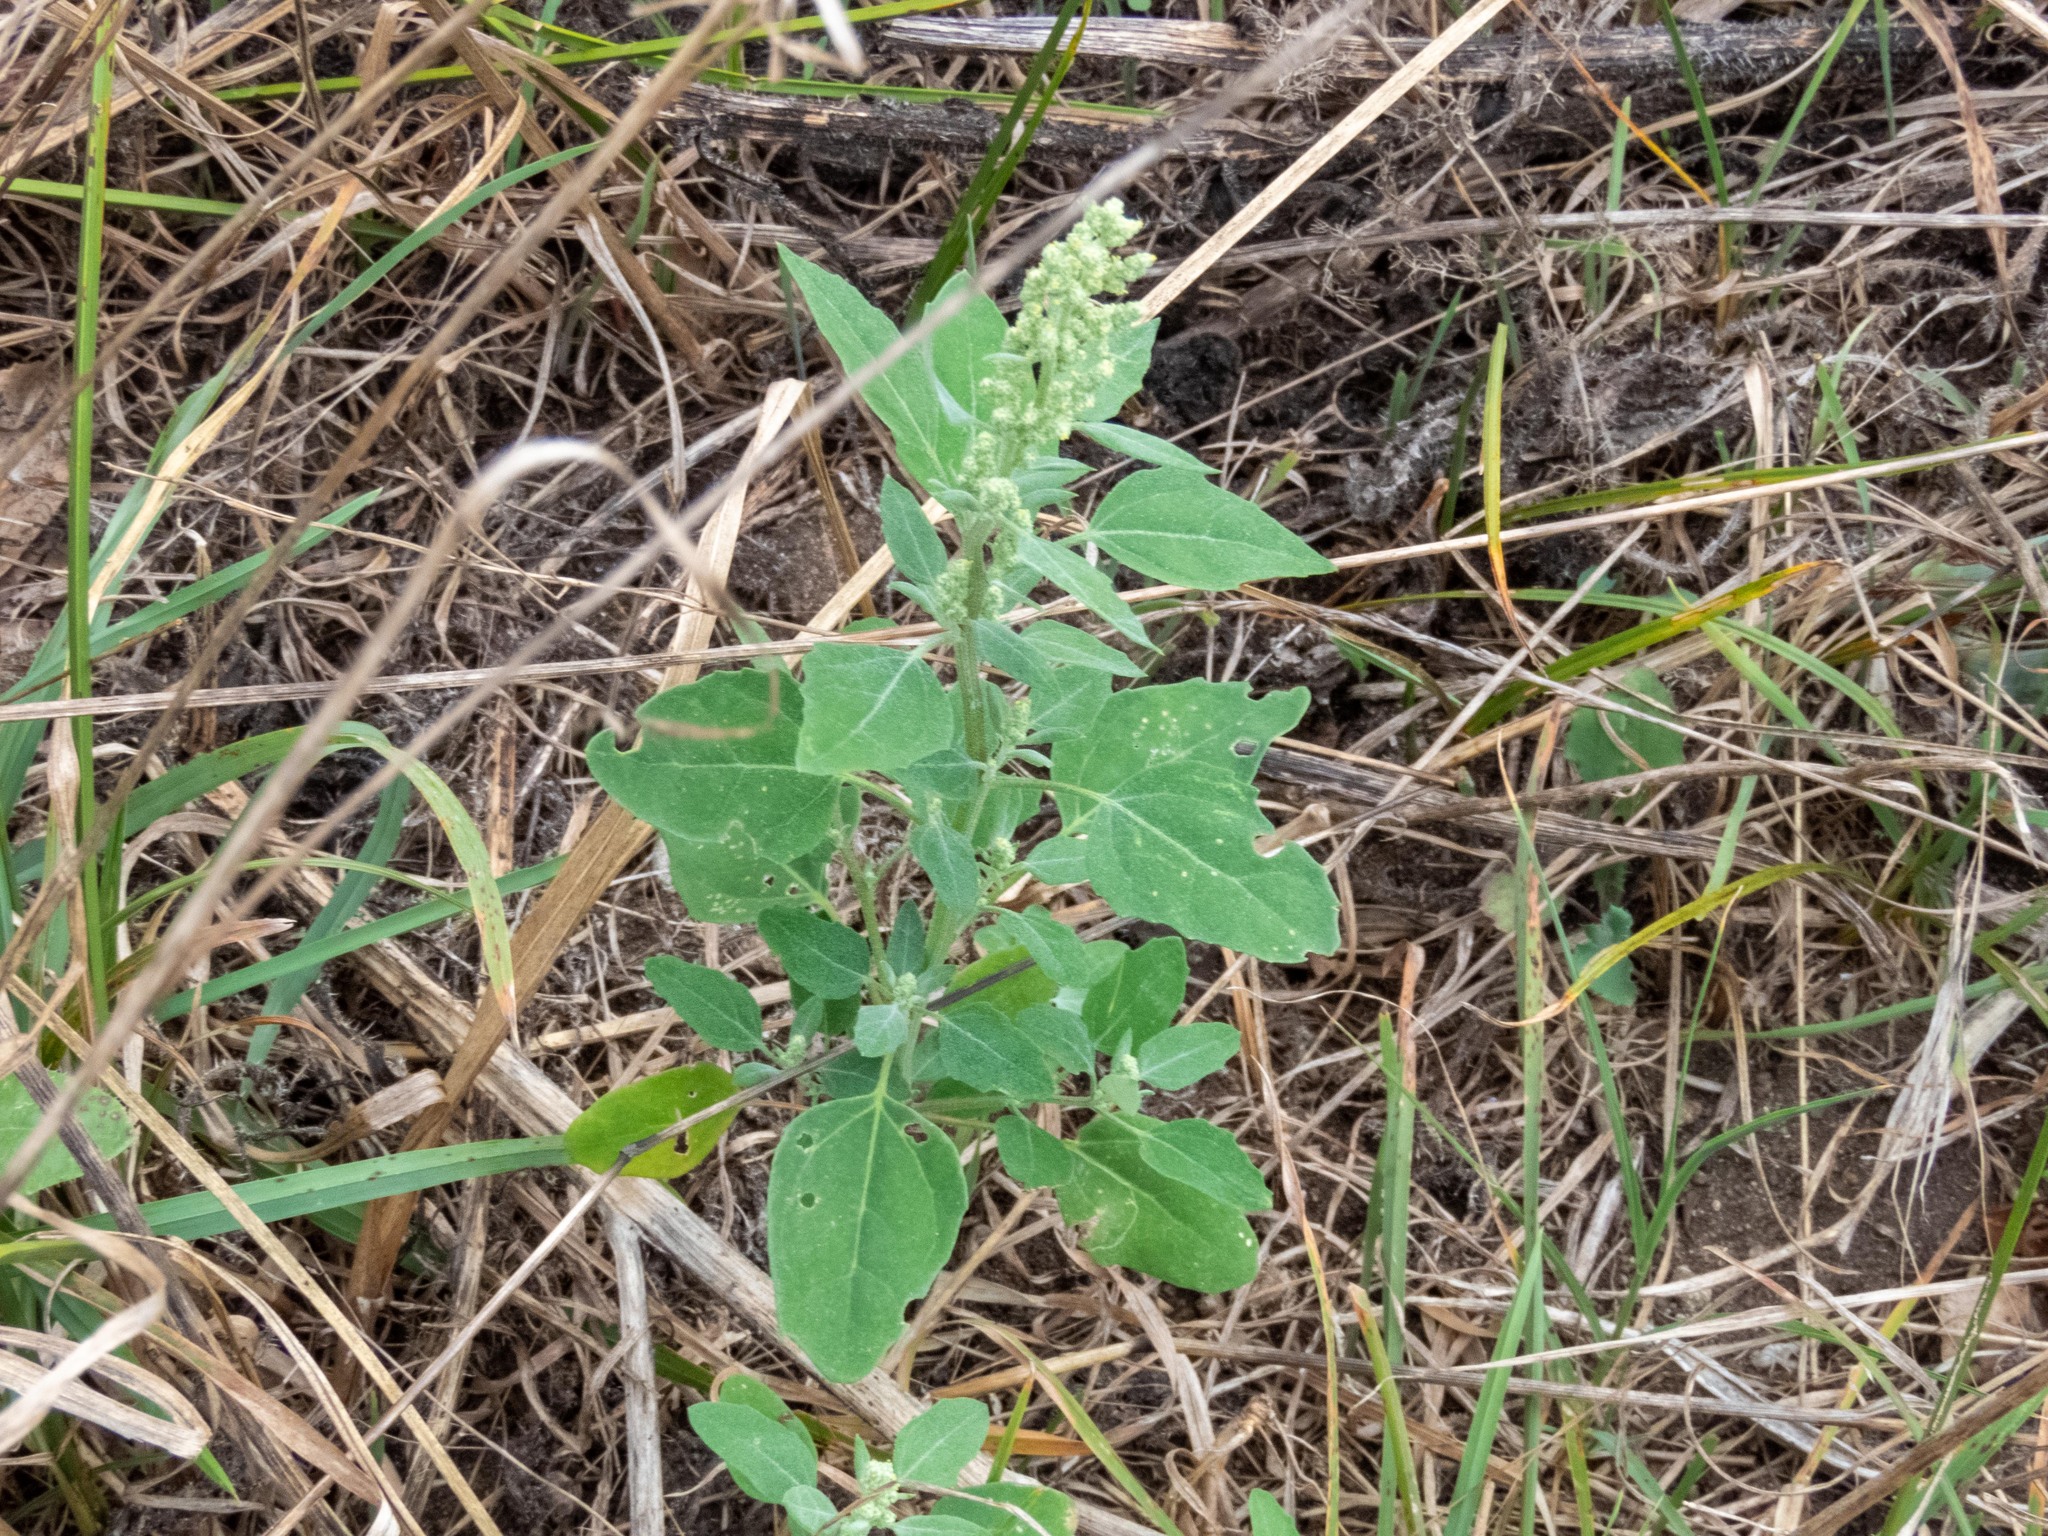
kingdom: Plantae
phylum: Tracheophyta
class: Magnoliopsida
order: Caryophyllales
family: Amaranthaceae
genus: Chenopodium
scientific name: Chenopodium album
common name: Fat-hen
